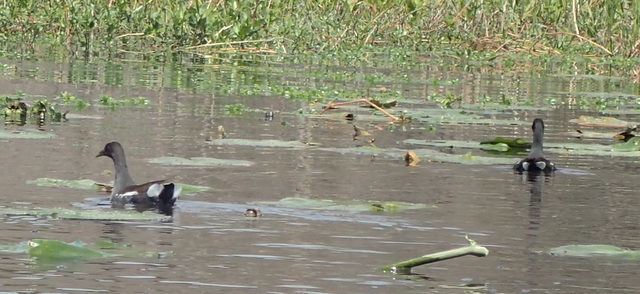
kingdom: Animalia
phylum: Chordata
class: Aves
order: Gruiformes
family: Rallidae
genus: Gallinula
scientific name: Gallinula chloropus
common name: Common moorhen
